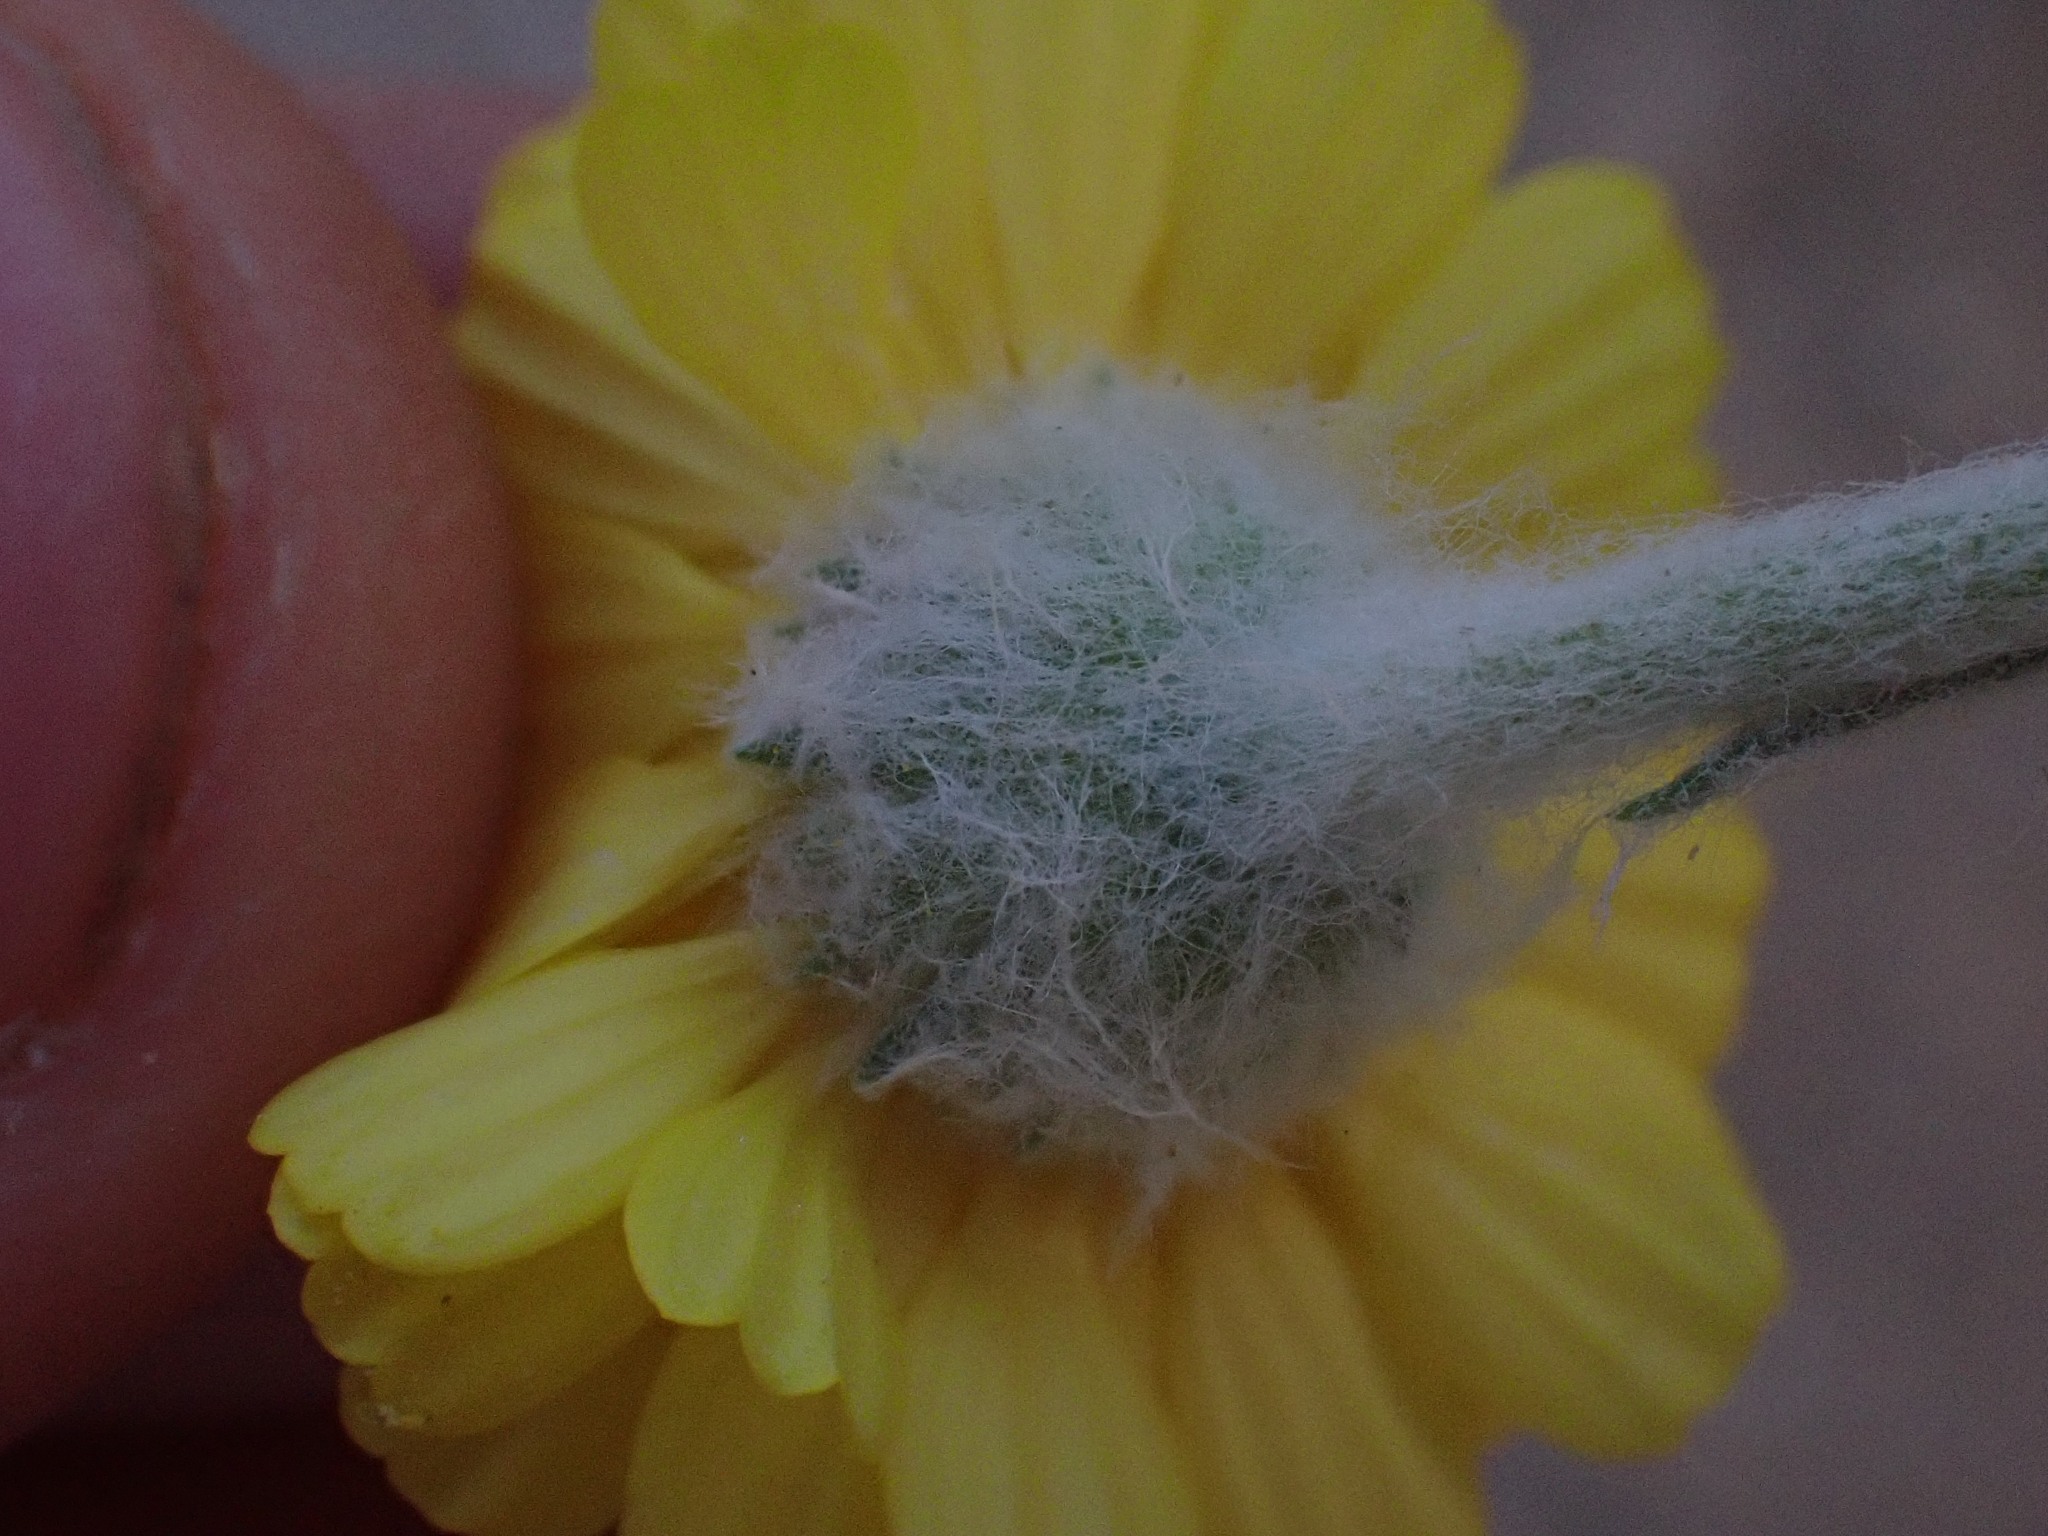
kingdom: Plantae
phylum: Tracheophyta
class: Magnoliopsida
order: Asterales
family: Asteraceae
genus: Baileya
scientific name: Baileya pleniradiata
